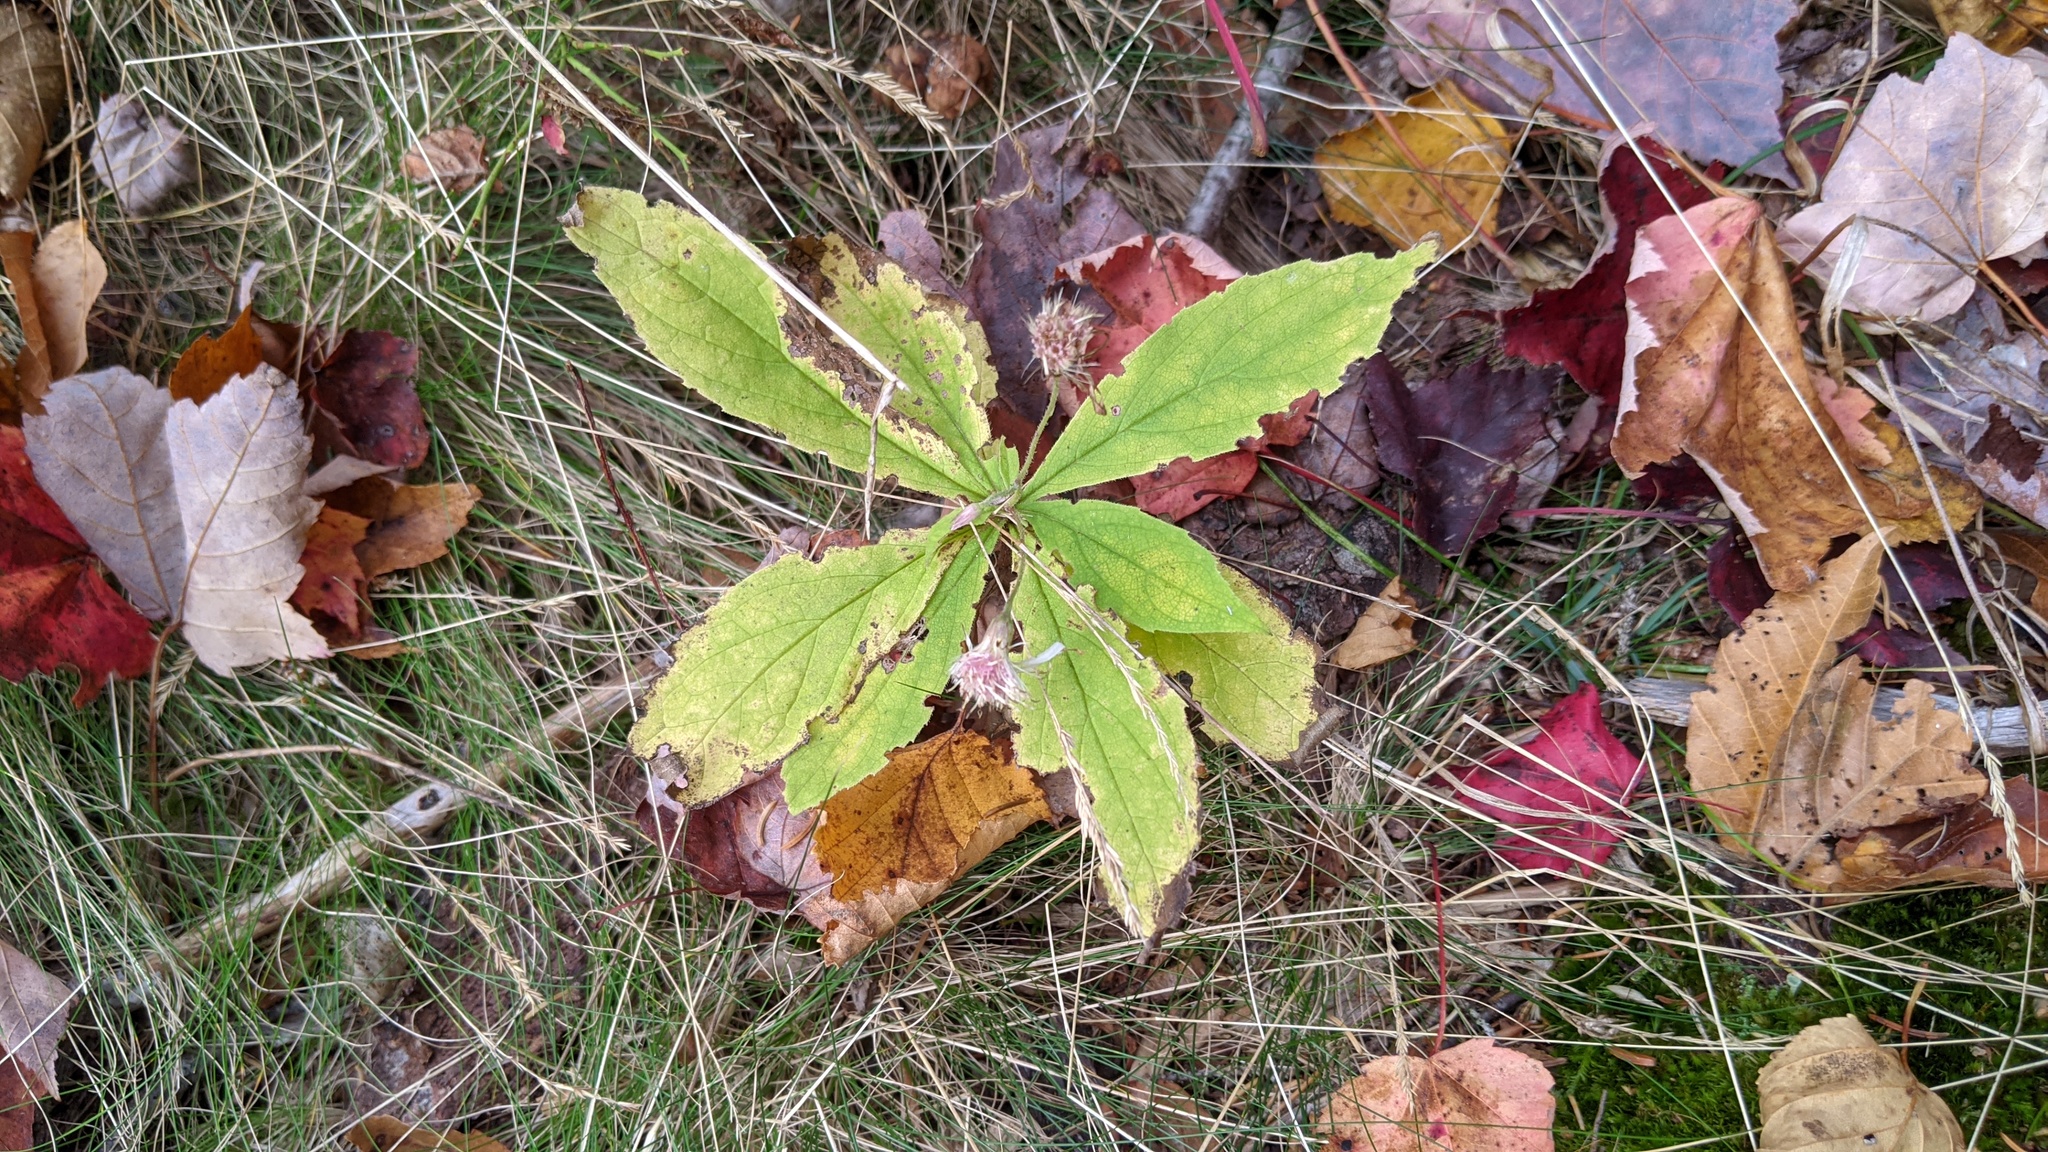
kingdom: Plantae
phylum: Tracheophyta
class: Magnoliopsida
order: Asterales
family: Asteraceae
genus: Oclemena
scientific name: Oclemena acuminata
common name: Mountain aster
